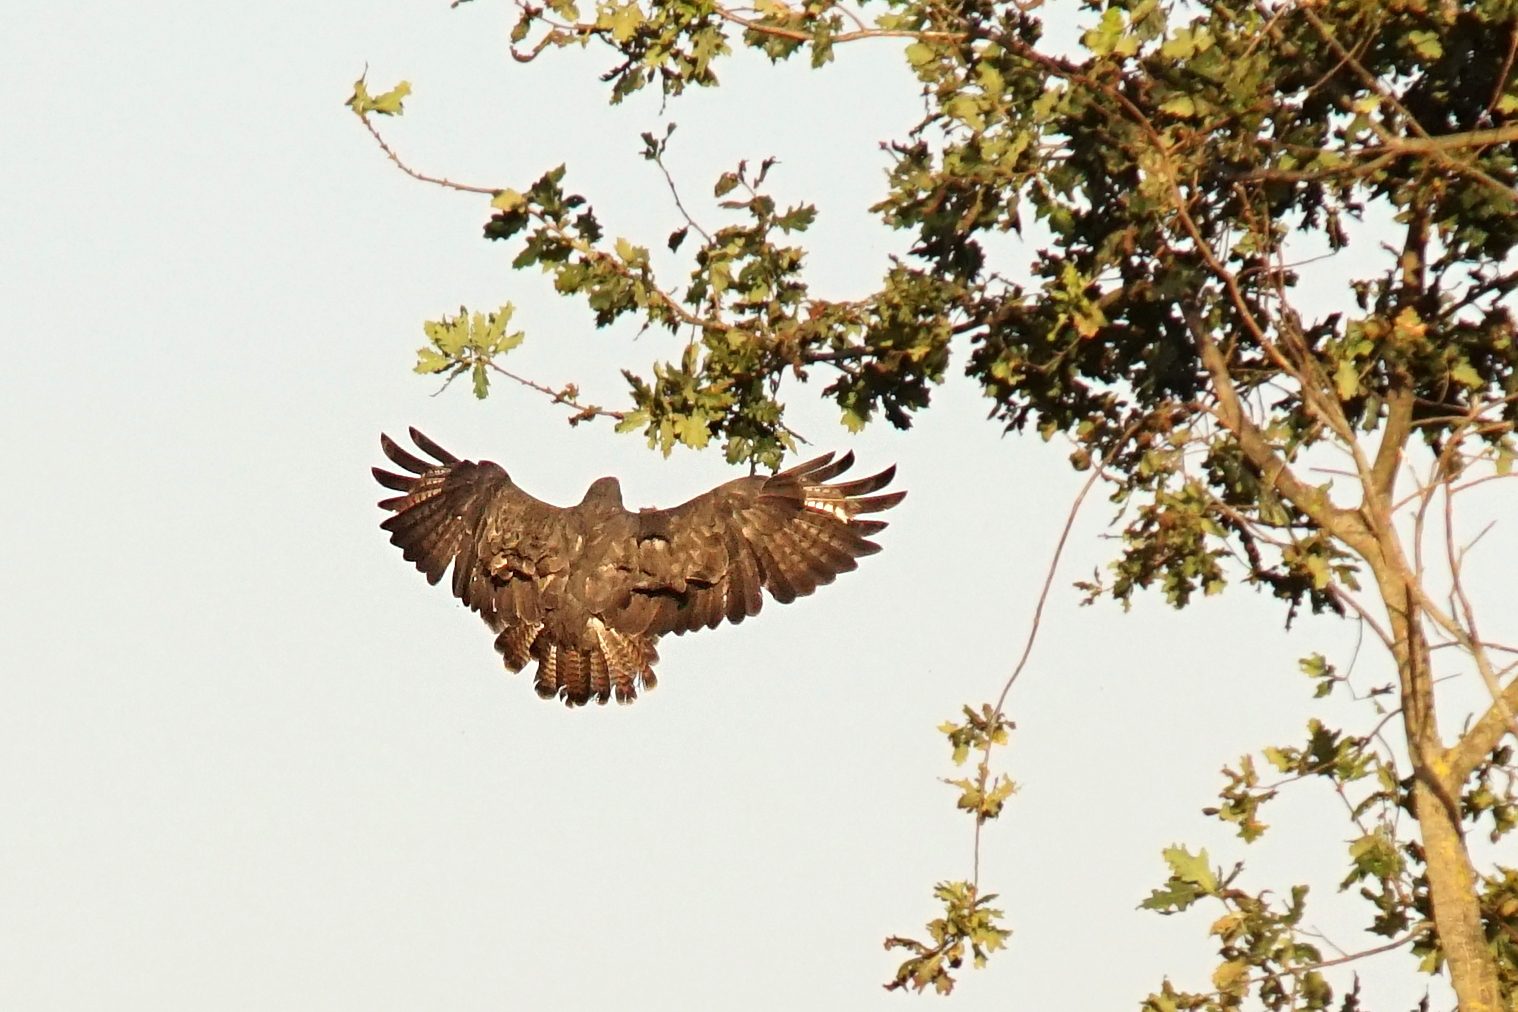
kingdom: Animalia
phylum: Chordata
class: Aves
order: Accipitriformes
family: Accipitridae
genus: Buteo
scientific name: Buteo buteo
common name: Common buzzard
